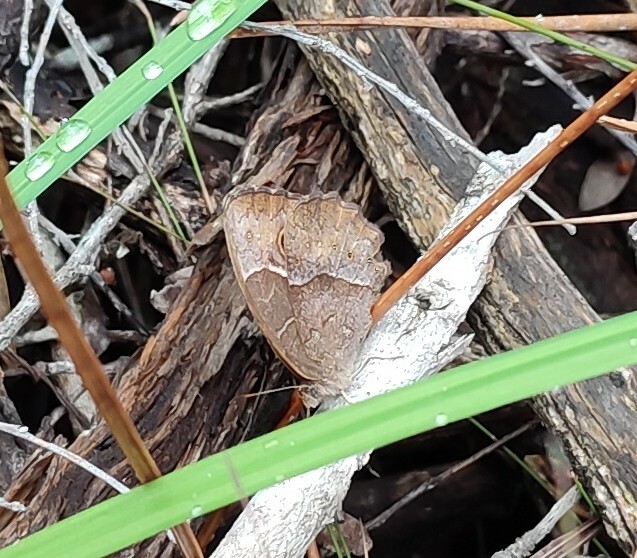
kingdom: Animalia
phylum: Arthropoda
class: Insecta
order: Lepidoptera
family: Nymphalidae
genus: Mycalesis
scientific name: Mycalesis rhacotis
